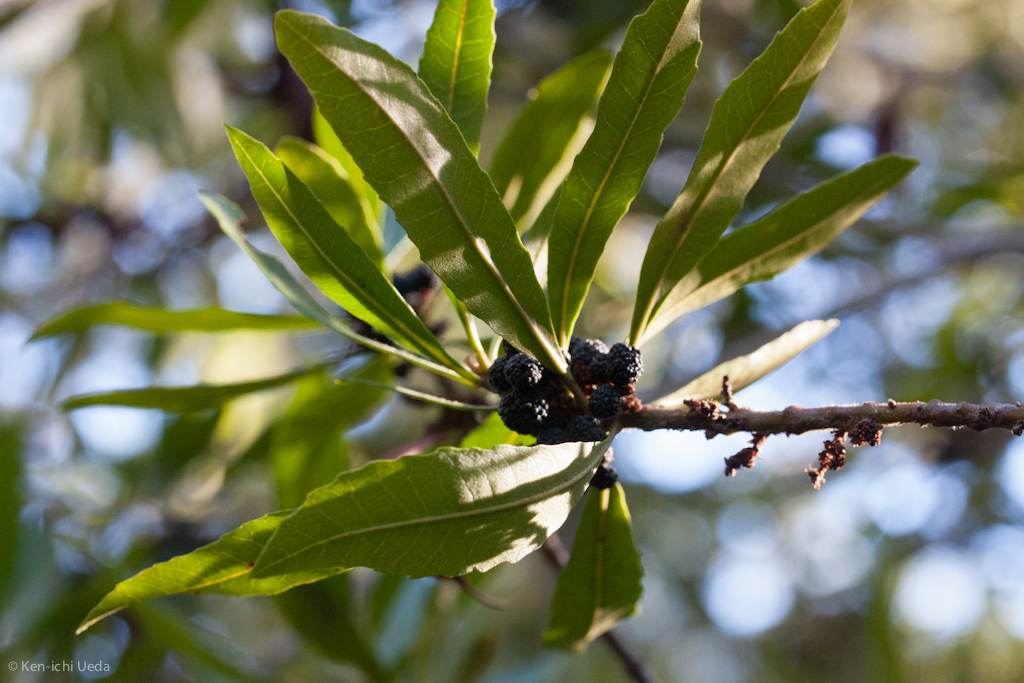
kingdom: Plantae
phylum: Tracheophyta
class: Magnoliopsida
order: Fagales
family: Myricaceae
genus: Morella
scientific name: Morella californica
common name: California wax-myrtle
